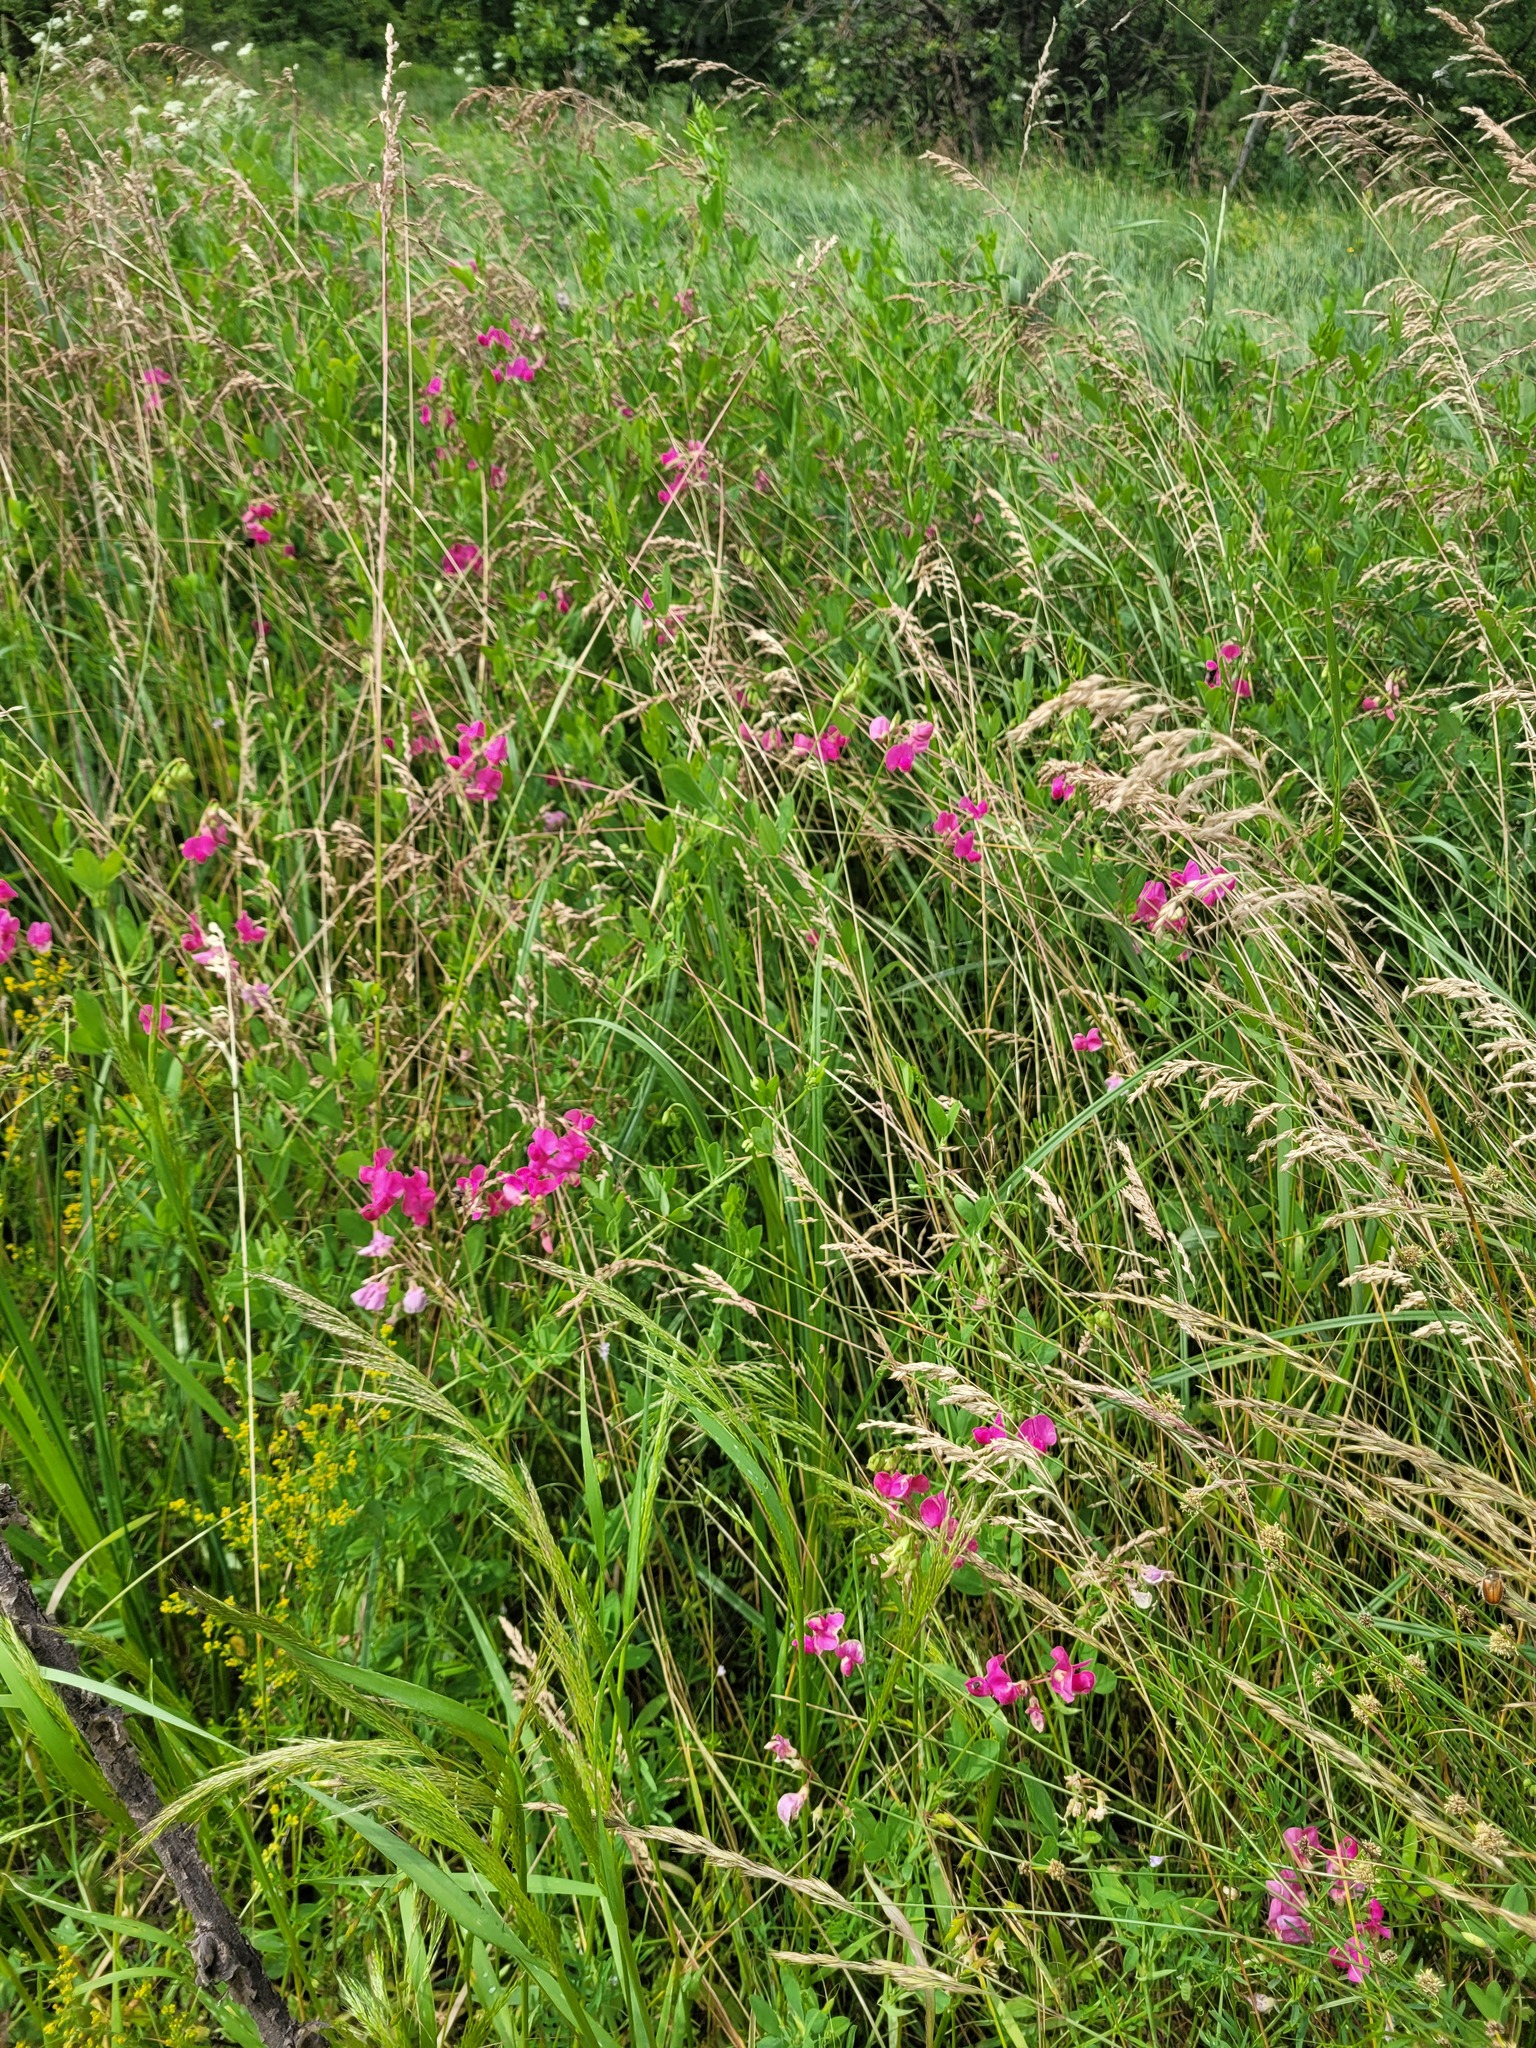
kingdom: Plantae
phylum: Tracheophyta
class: Magnoliopsida
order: Fabales
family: Fabaceae
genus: Lathyrus
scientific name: Lathyrus tuberosus
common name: Tuberous pea
